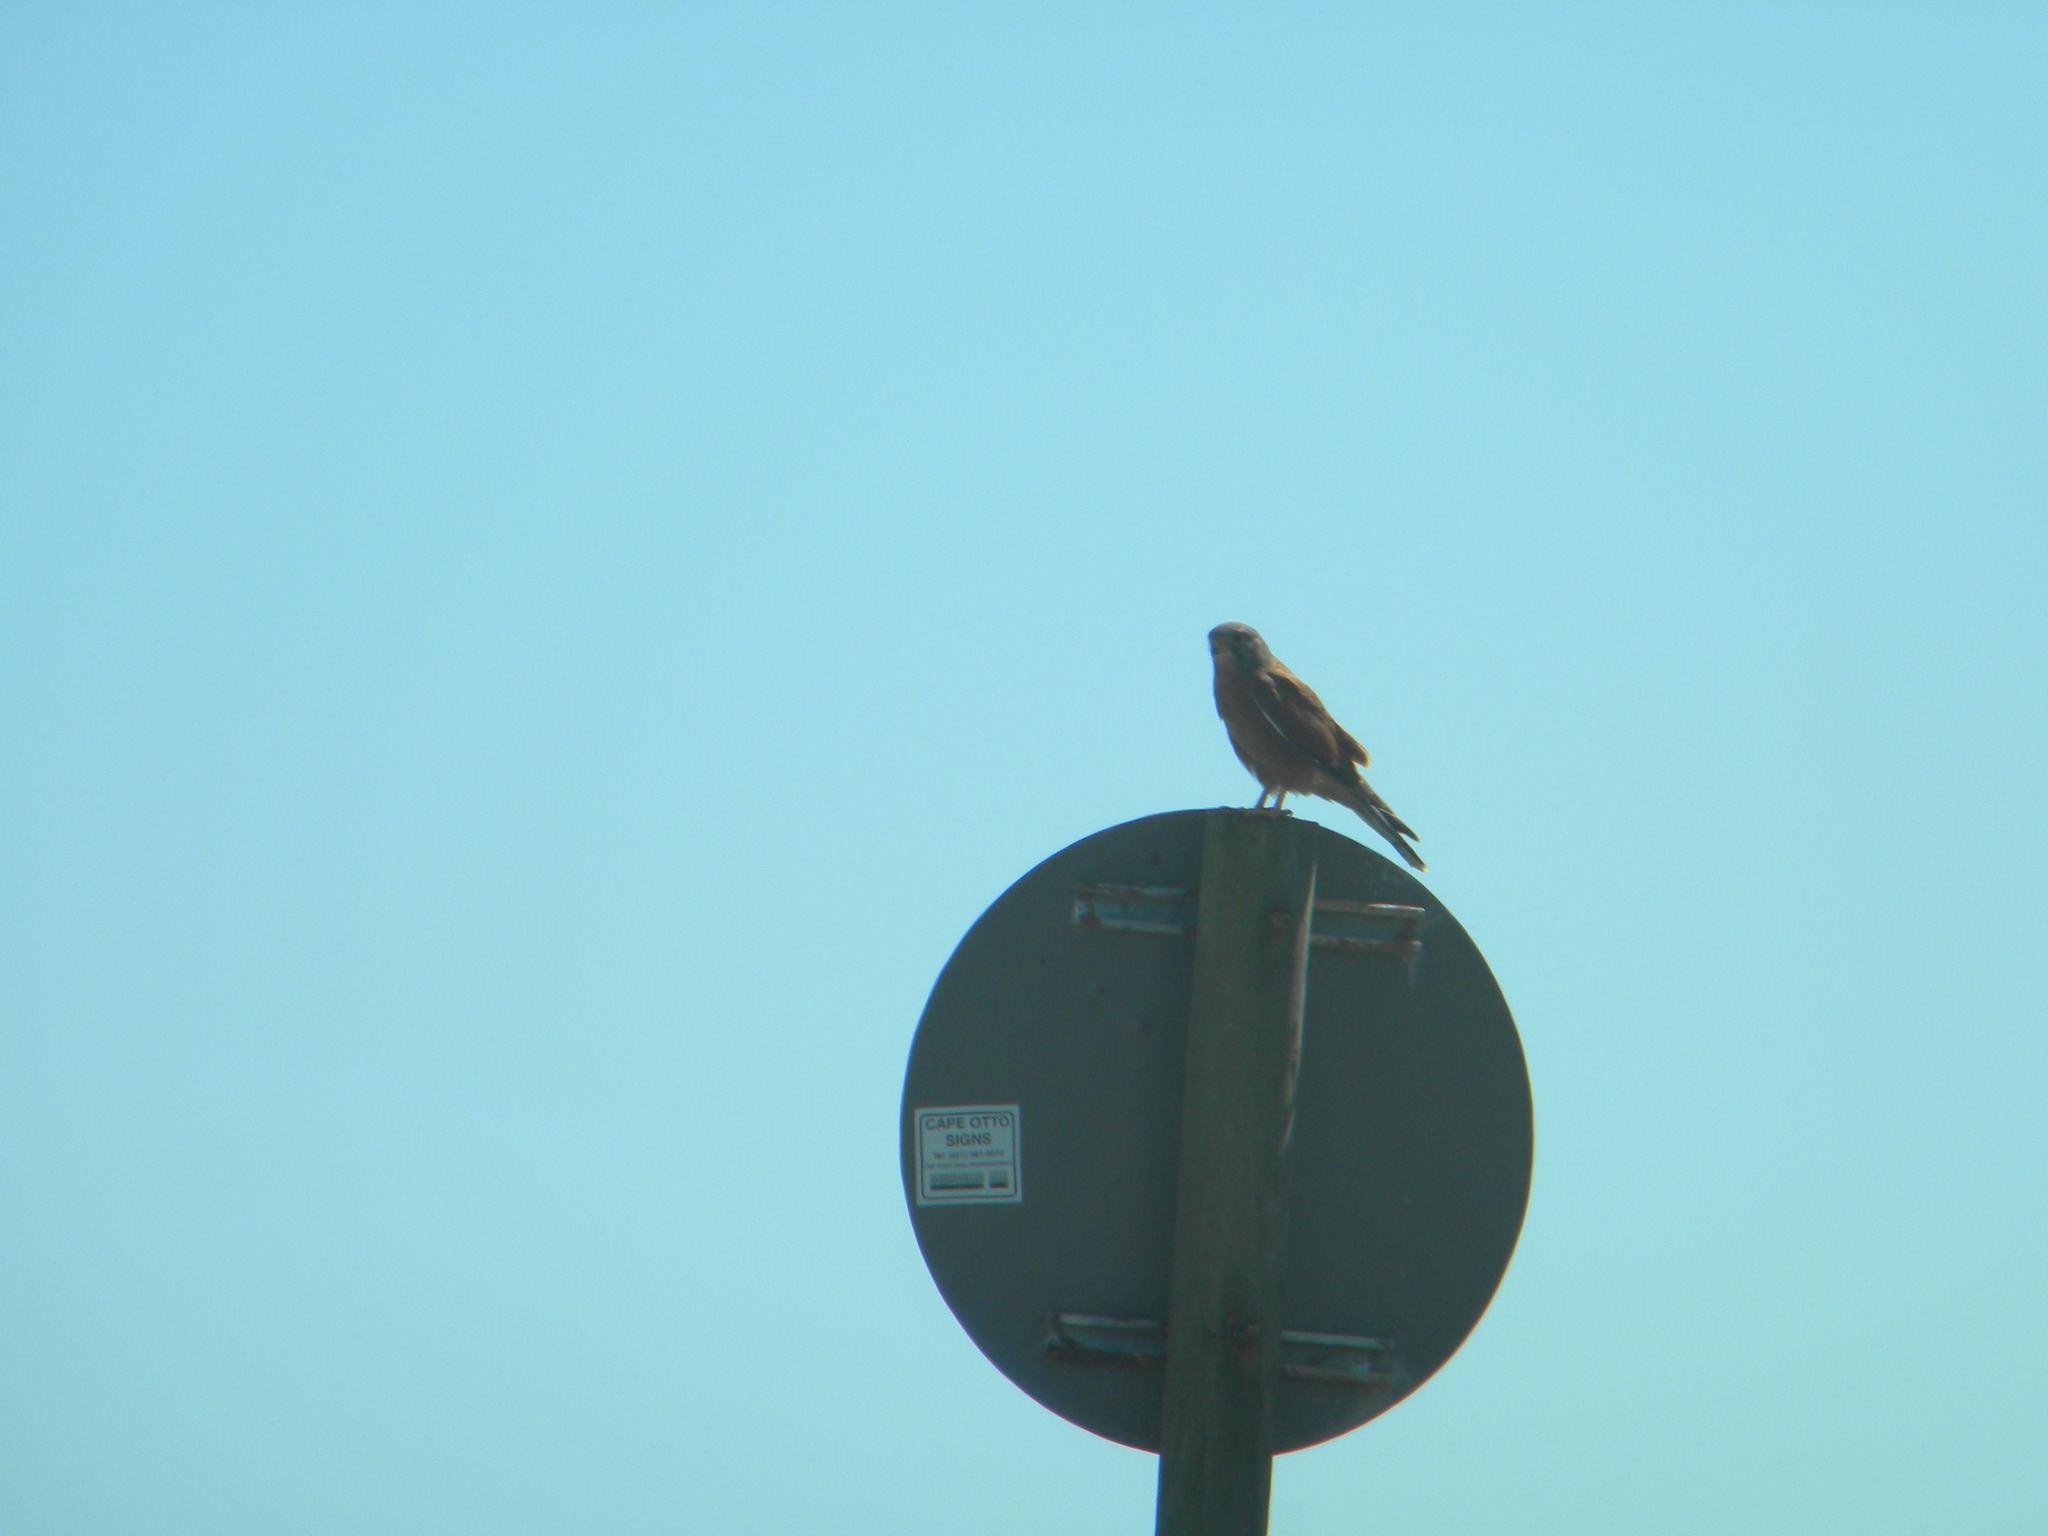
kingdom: Animalia
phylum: Chordata
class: Aves
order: Falconiformes
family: Falconidae
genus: Falco
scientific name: Falco rupicolus
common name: Rock kestrel
